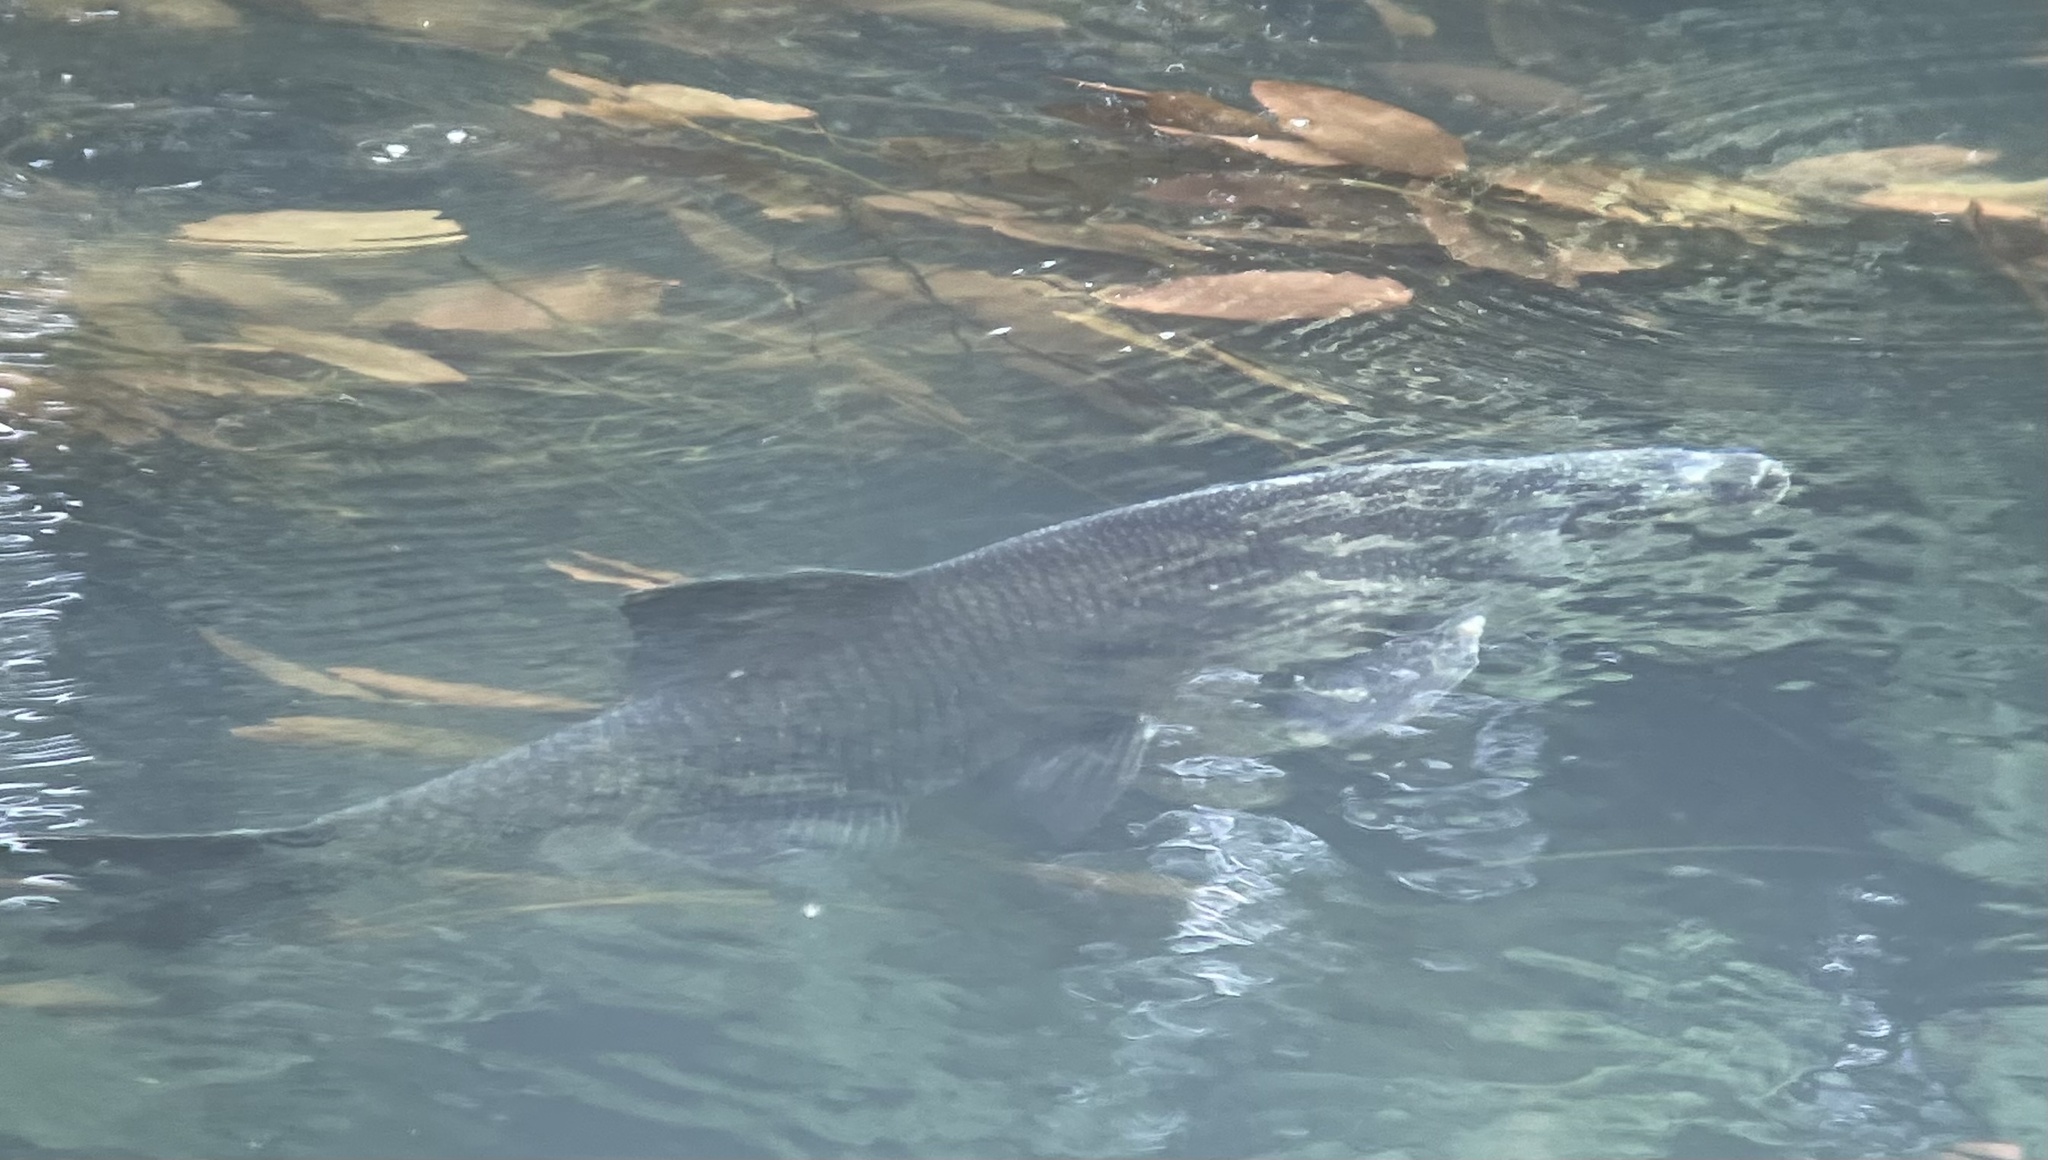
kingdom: Animalia
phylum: Chordata
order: Cypriniformes
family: Cyprinidae
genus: Abramis
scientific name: Abramis brama
